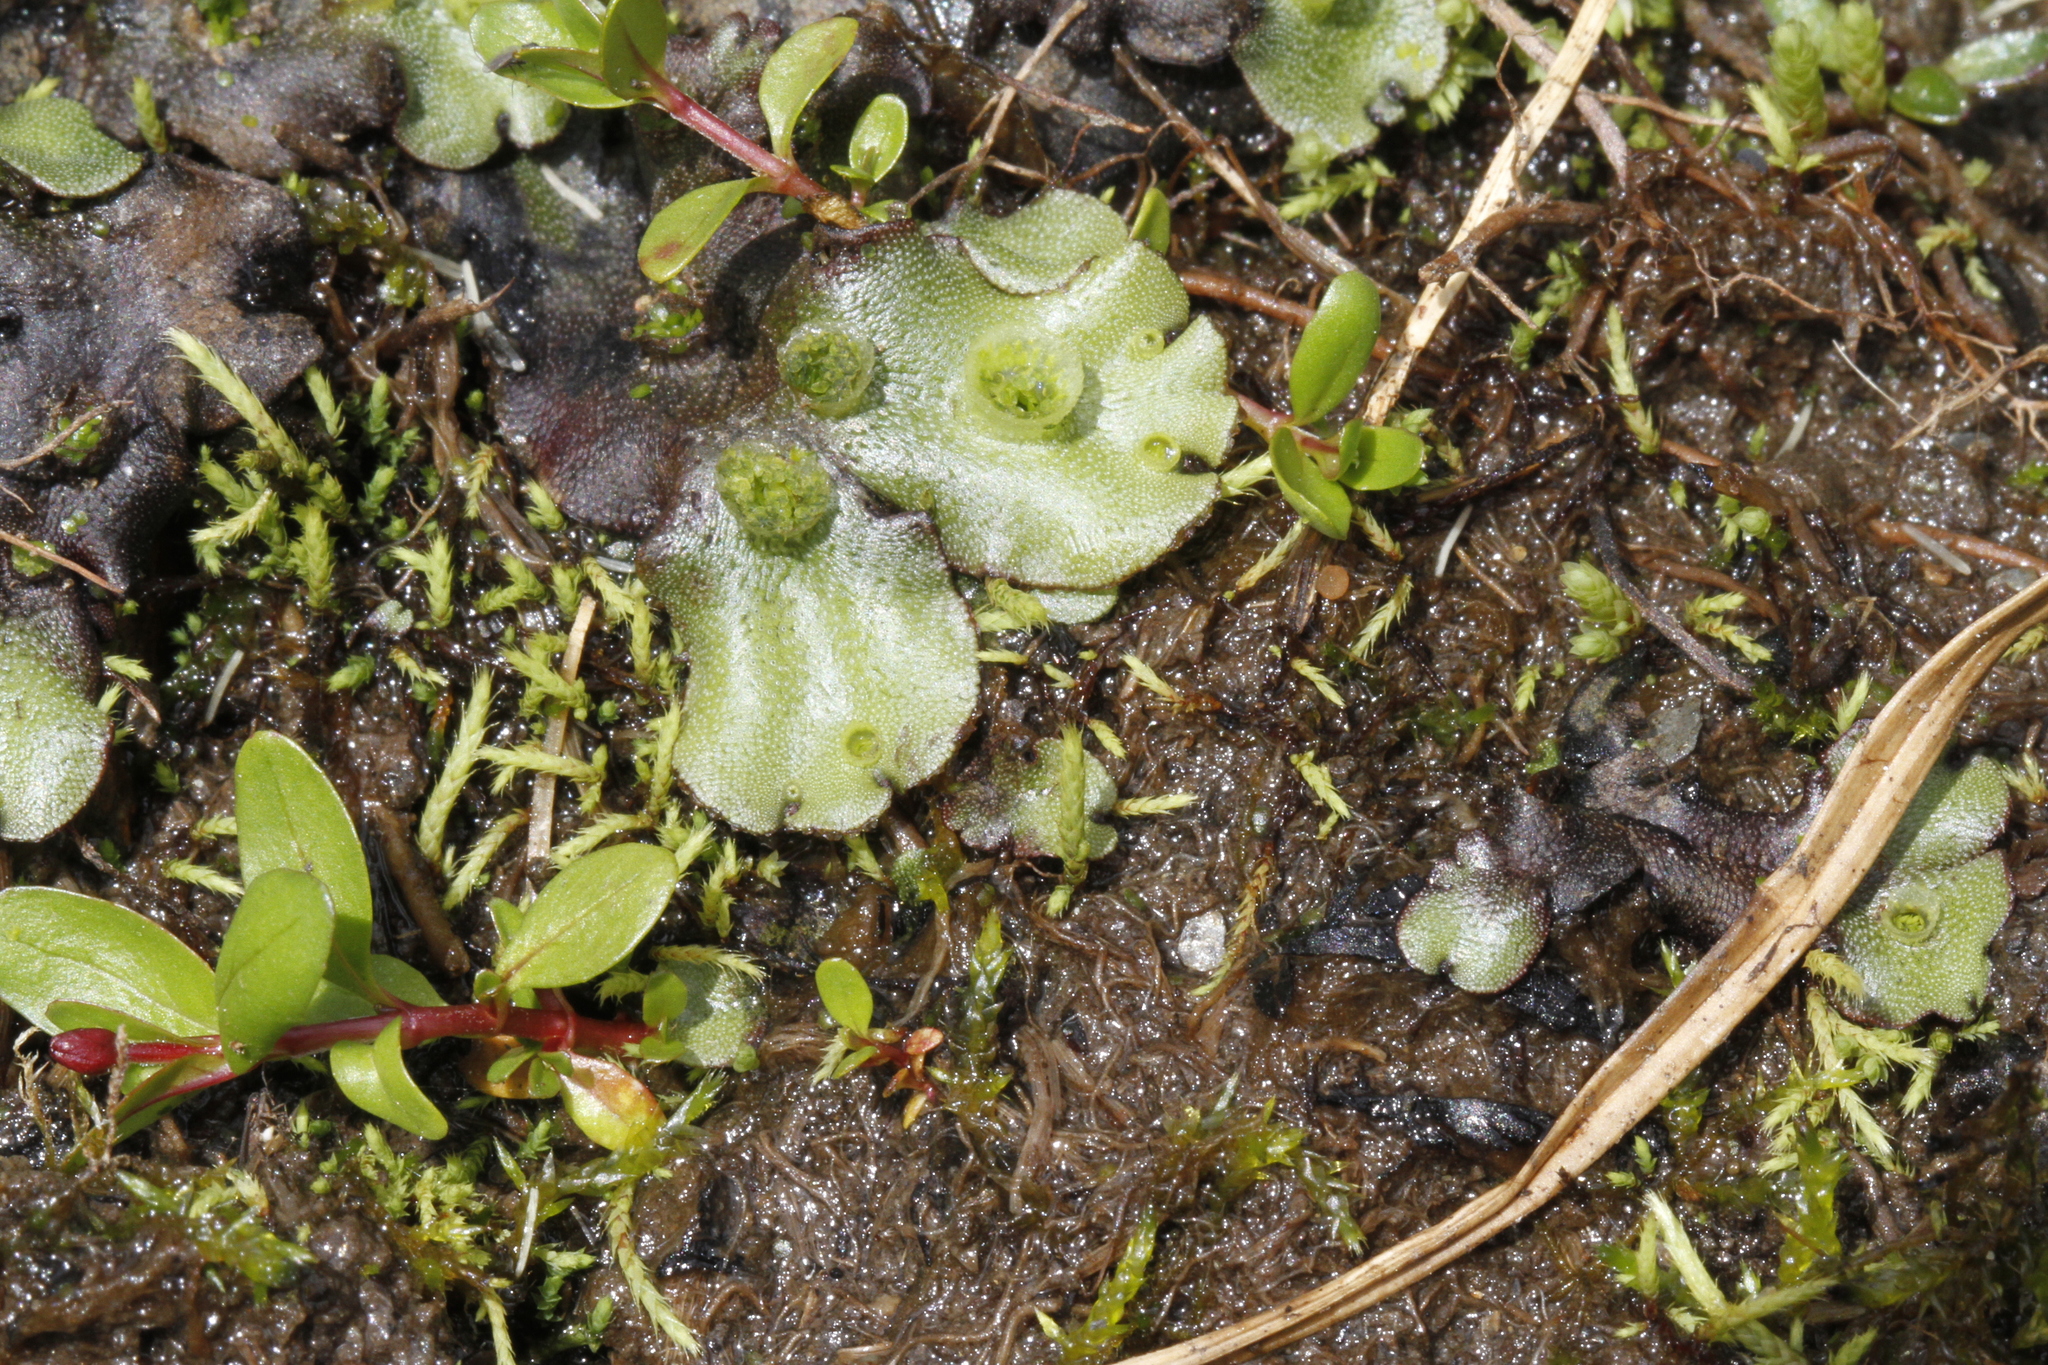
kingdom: Plantae
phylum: Marchantiophyta
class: Marchantiopsida
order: Marchantiales
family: Marchantiaceae
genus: Marchantia
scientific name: Marchantia polymorpha
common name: Common liverwort
